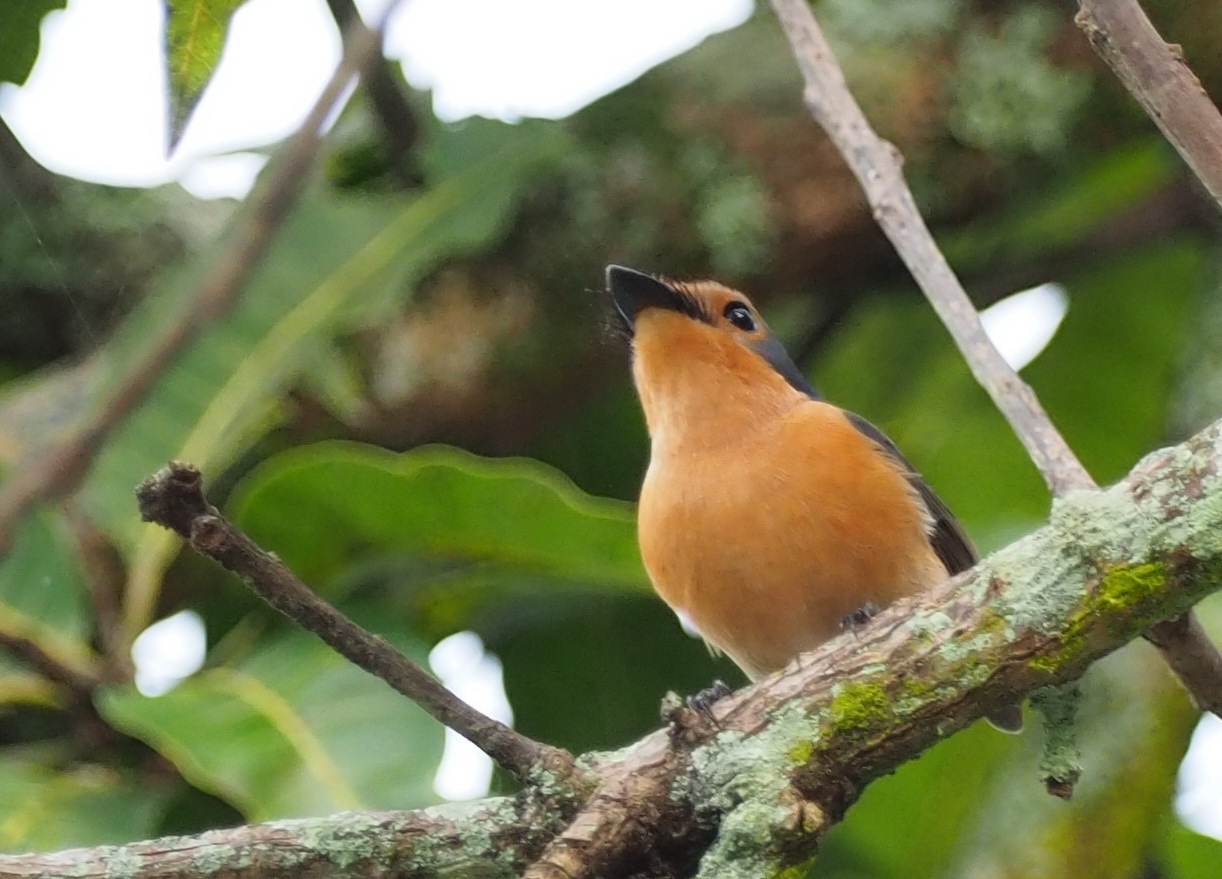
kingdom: Animalia
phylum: Chordata
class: Aves
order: Passeriformes
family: Monarchidae
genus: Myiagra
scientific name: Myiagra erythrops
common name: Palau flycatcher
